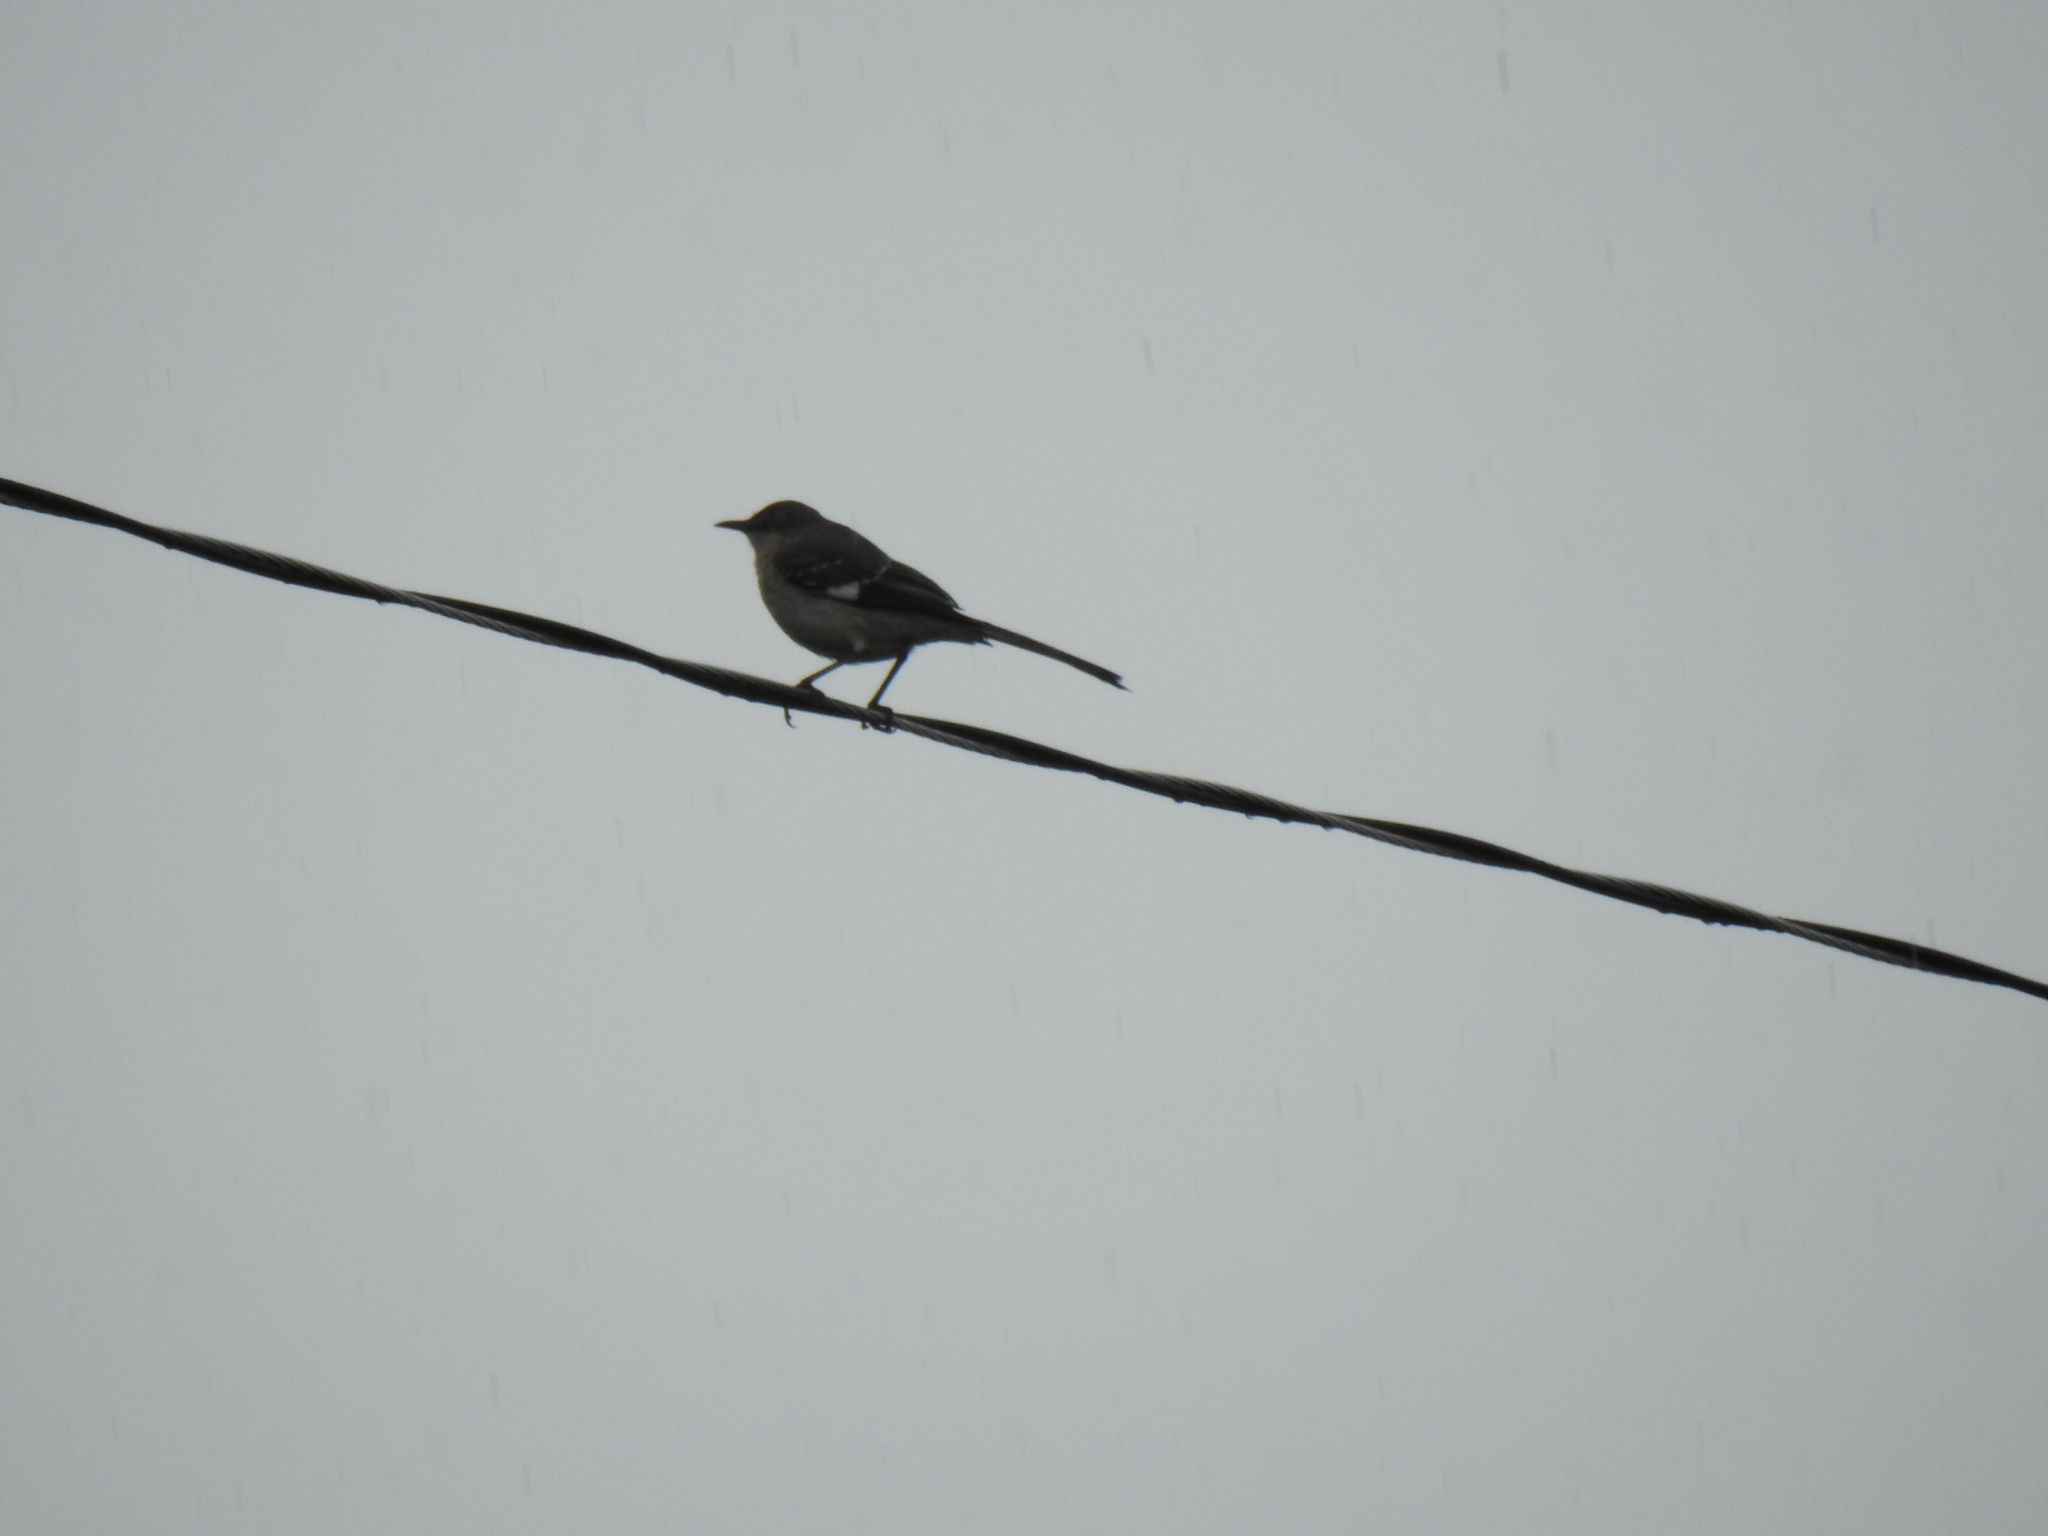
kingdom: Animalia
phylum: Chordata
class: Aves
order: Passeriformes
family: Mimidae
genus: Mimus
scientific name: Mimus polyglottos
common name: Northern mockingbird
